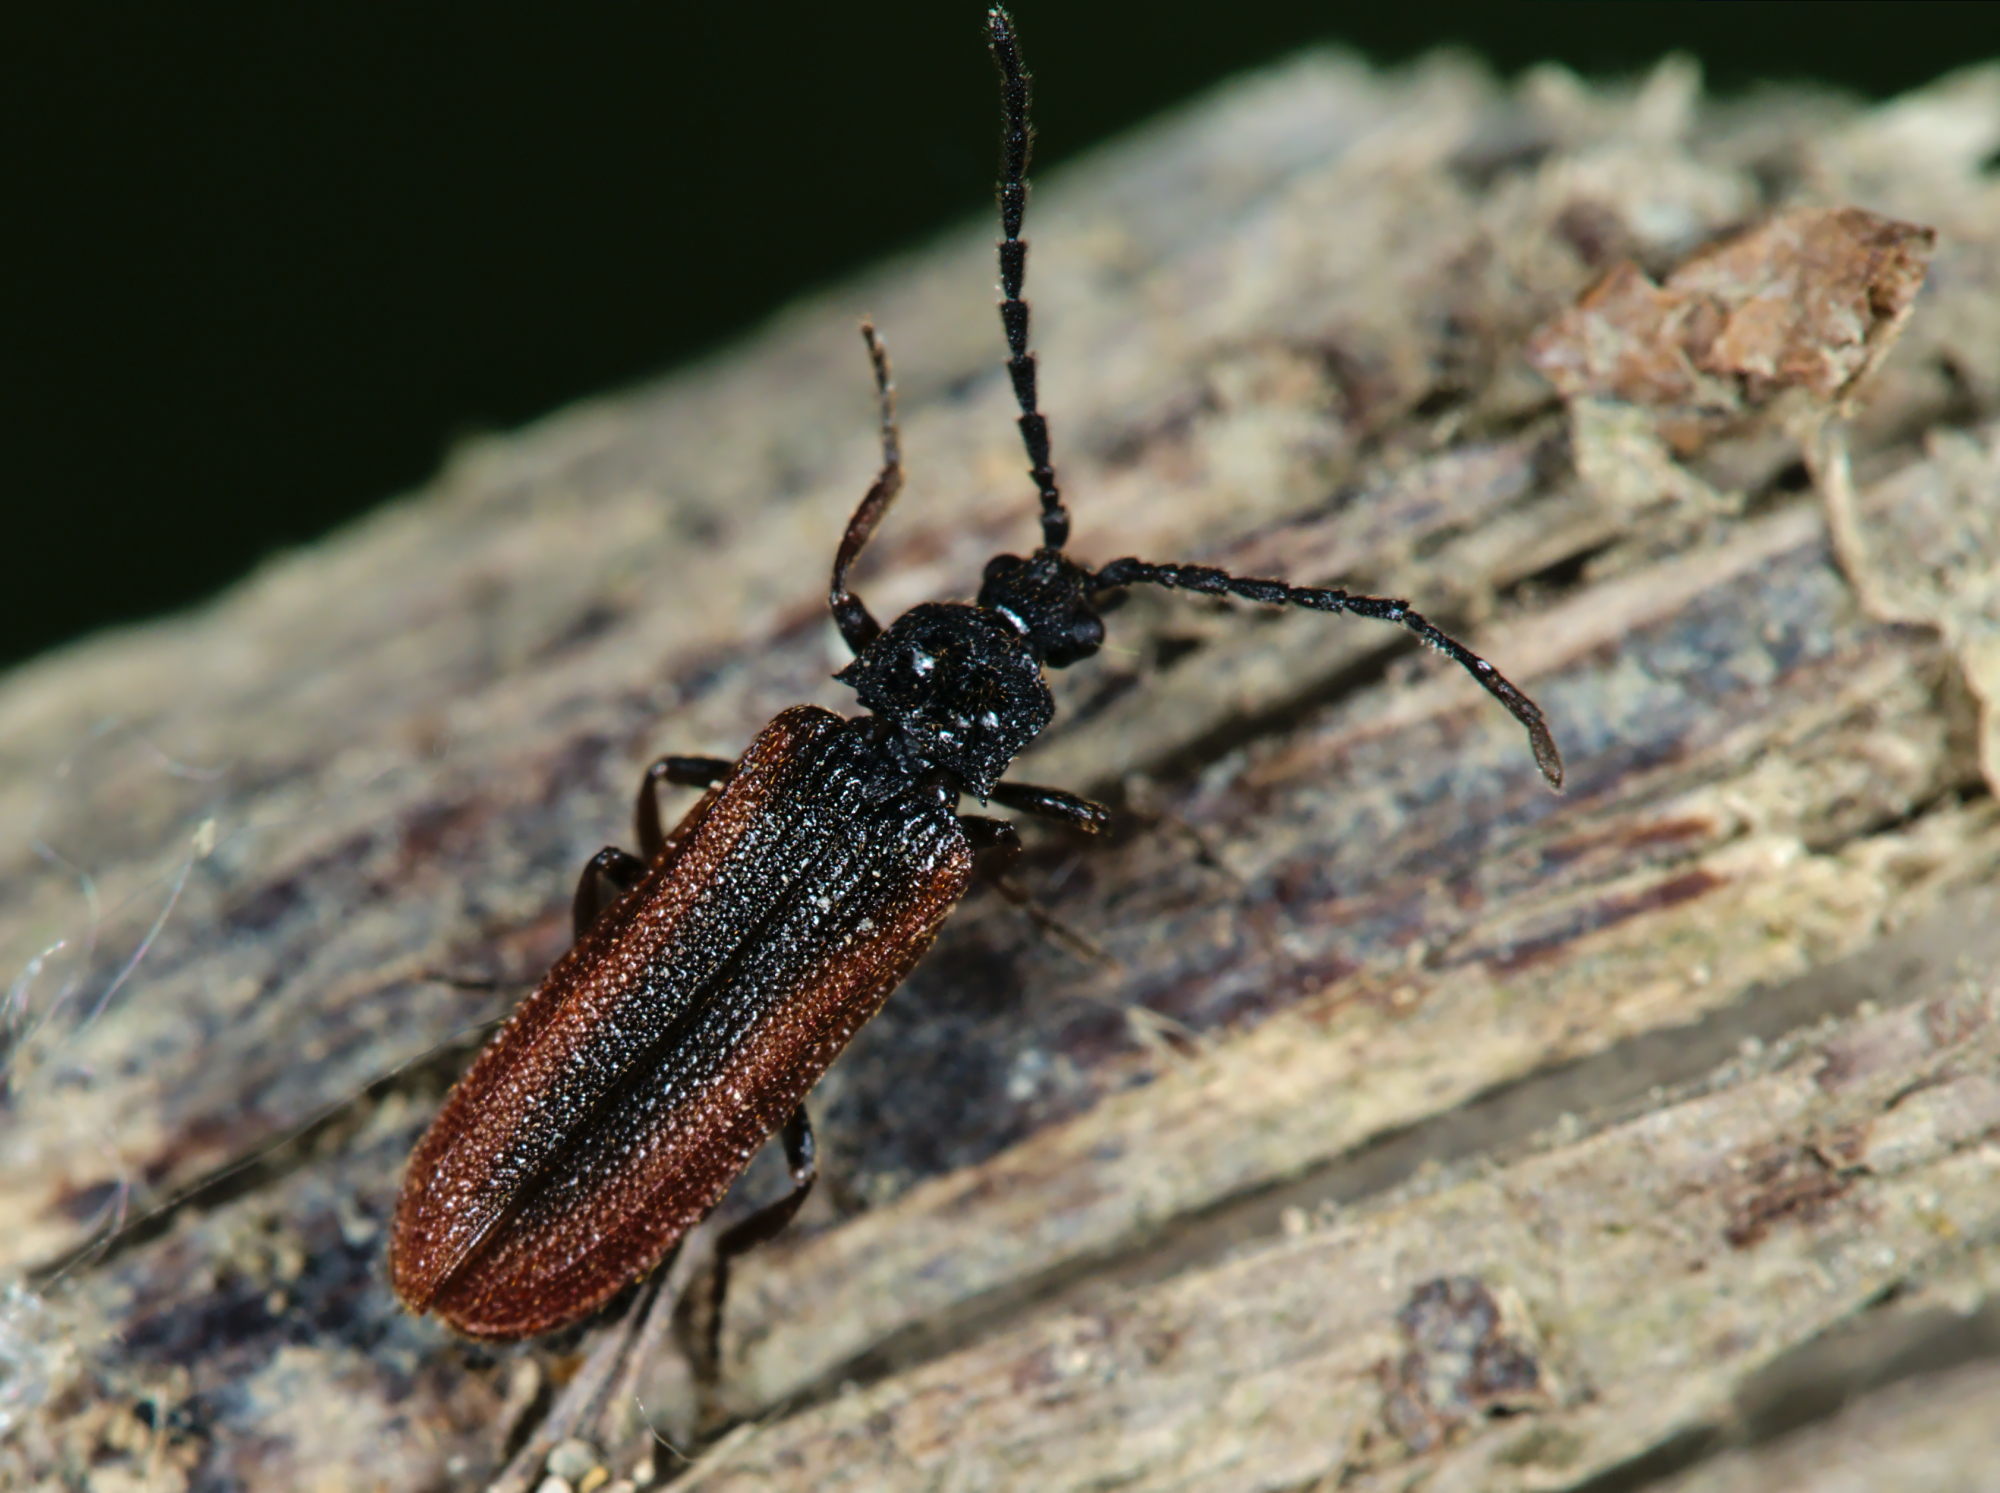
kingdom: Animalia
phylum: Arthropoda
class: Insecta
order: Coleoptera
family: Omalisidae
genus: Omalisus
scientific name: Omalisus fontisbellaquei
